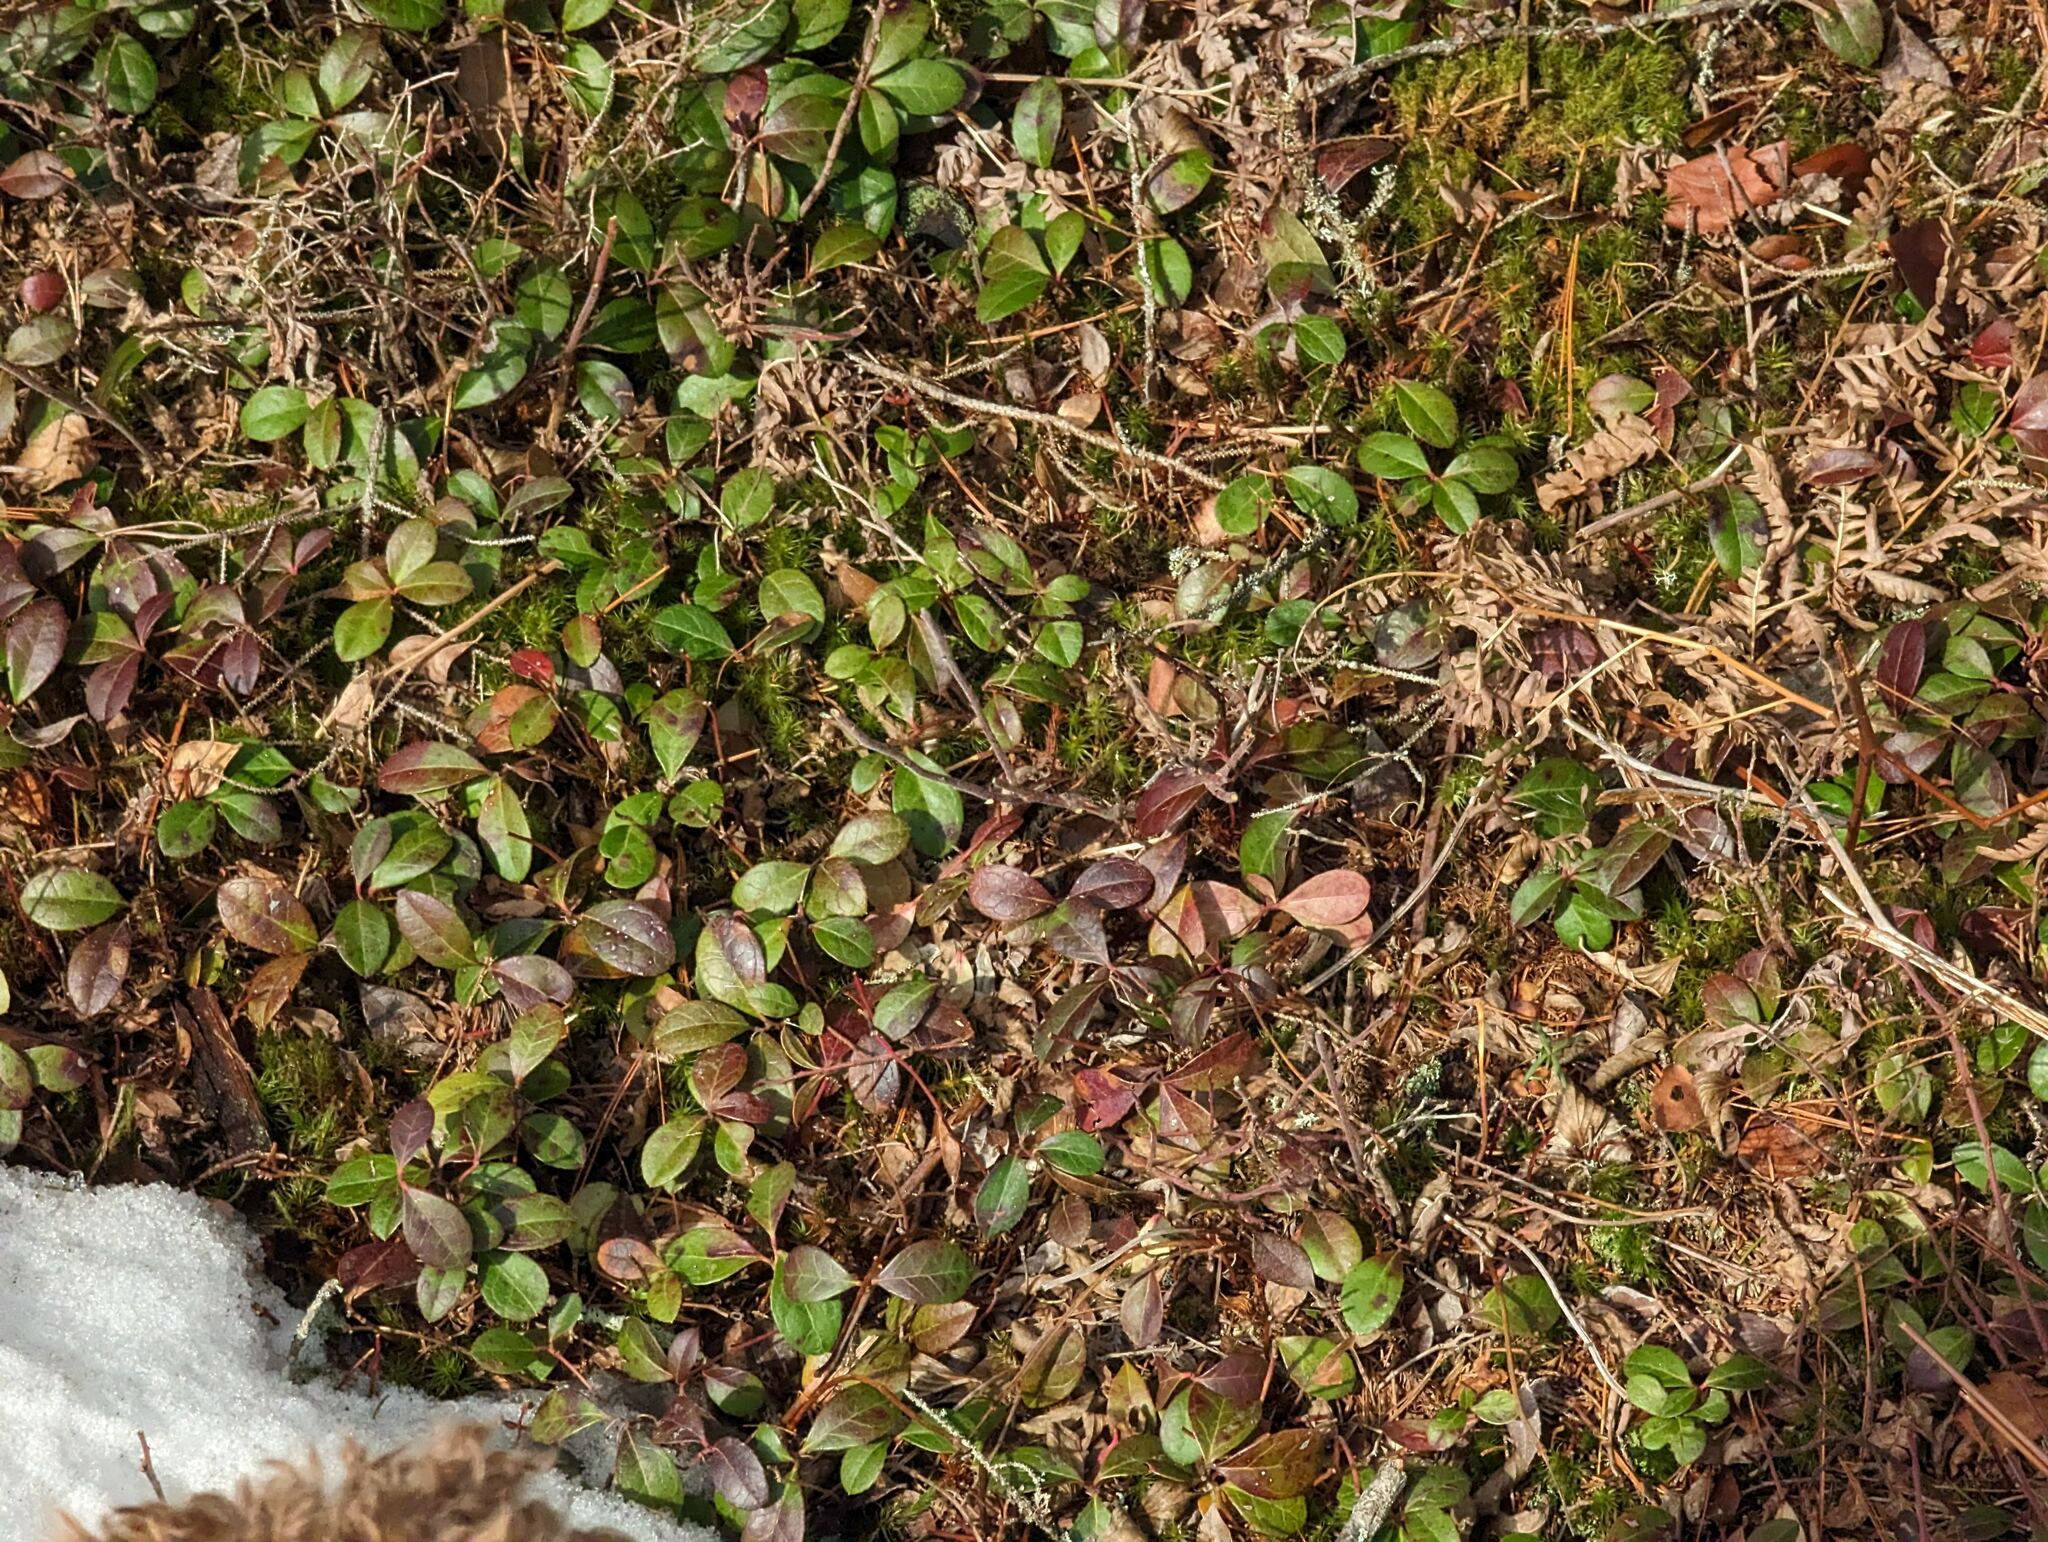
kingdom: Plantae
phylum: Tracheophyta
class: Magnoliopsida
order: Ericales
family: Ericaceae
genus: Gaultheria
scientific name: Gaultheria procumbens
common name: Checkerberry
